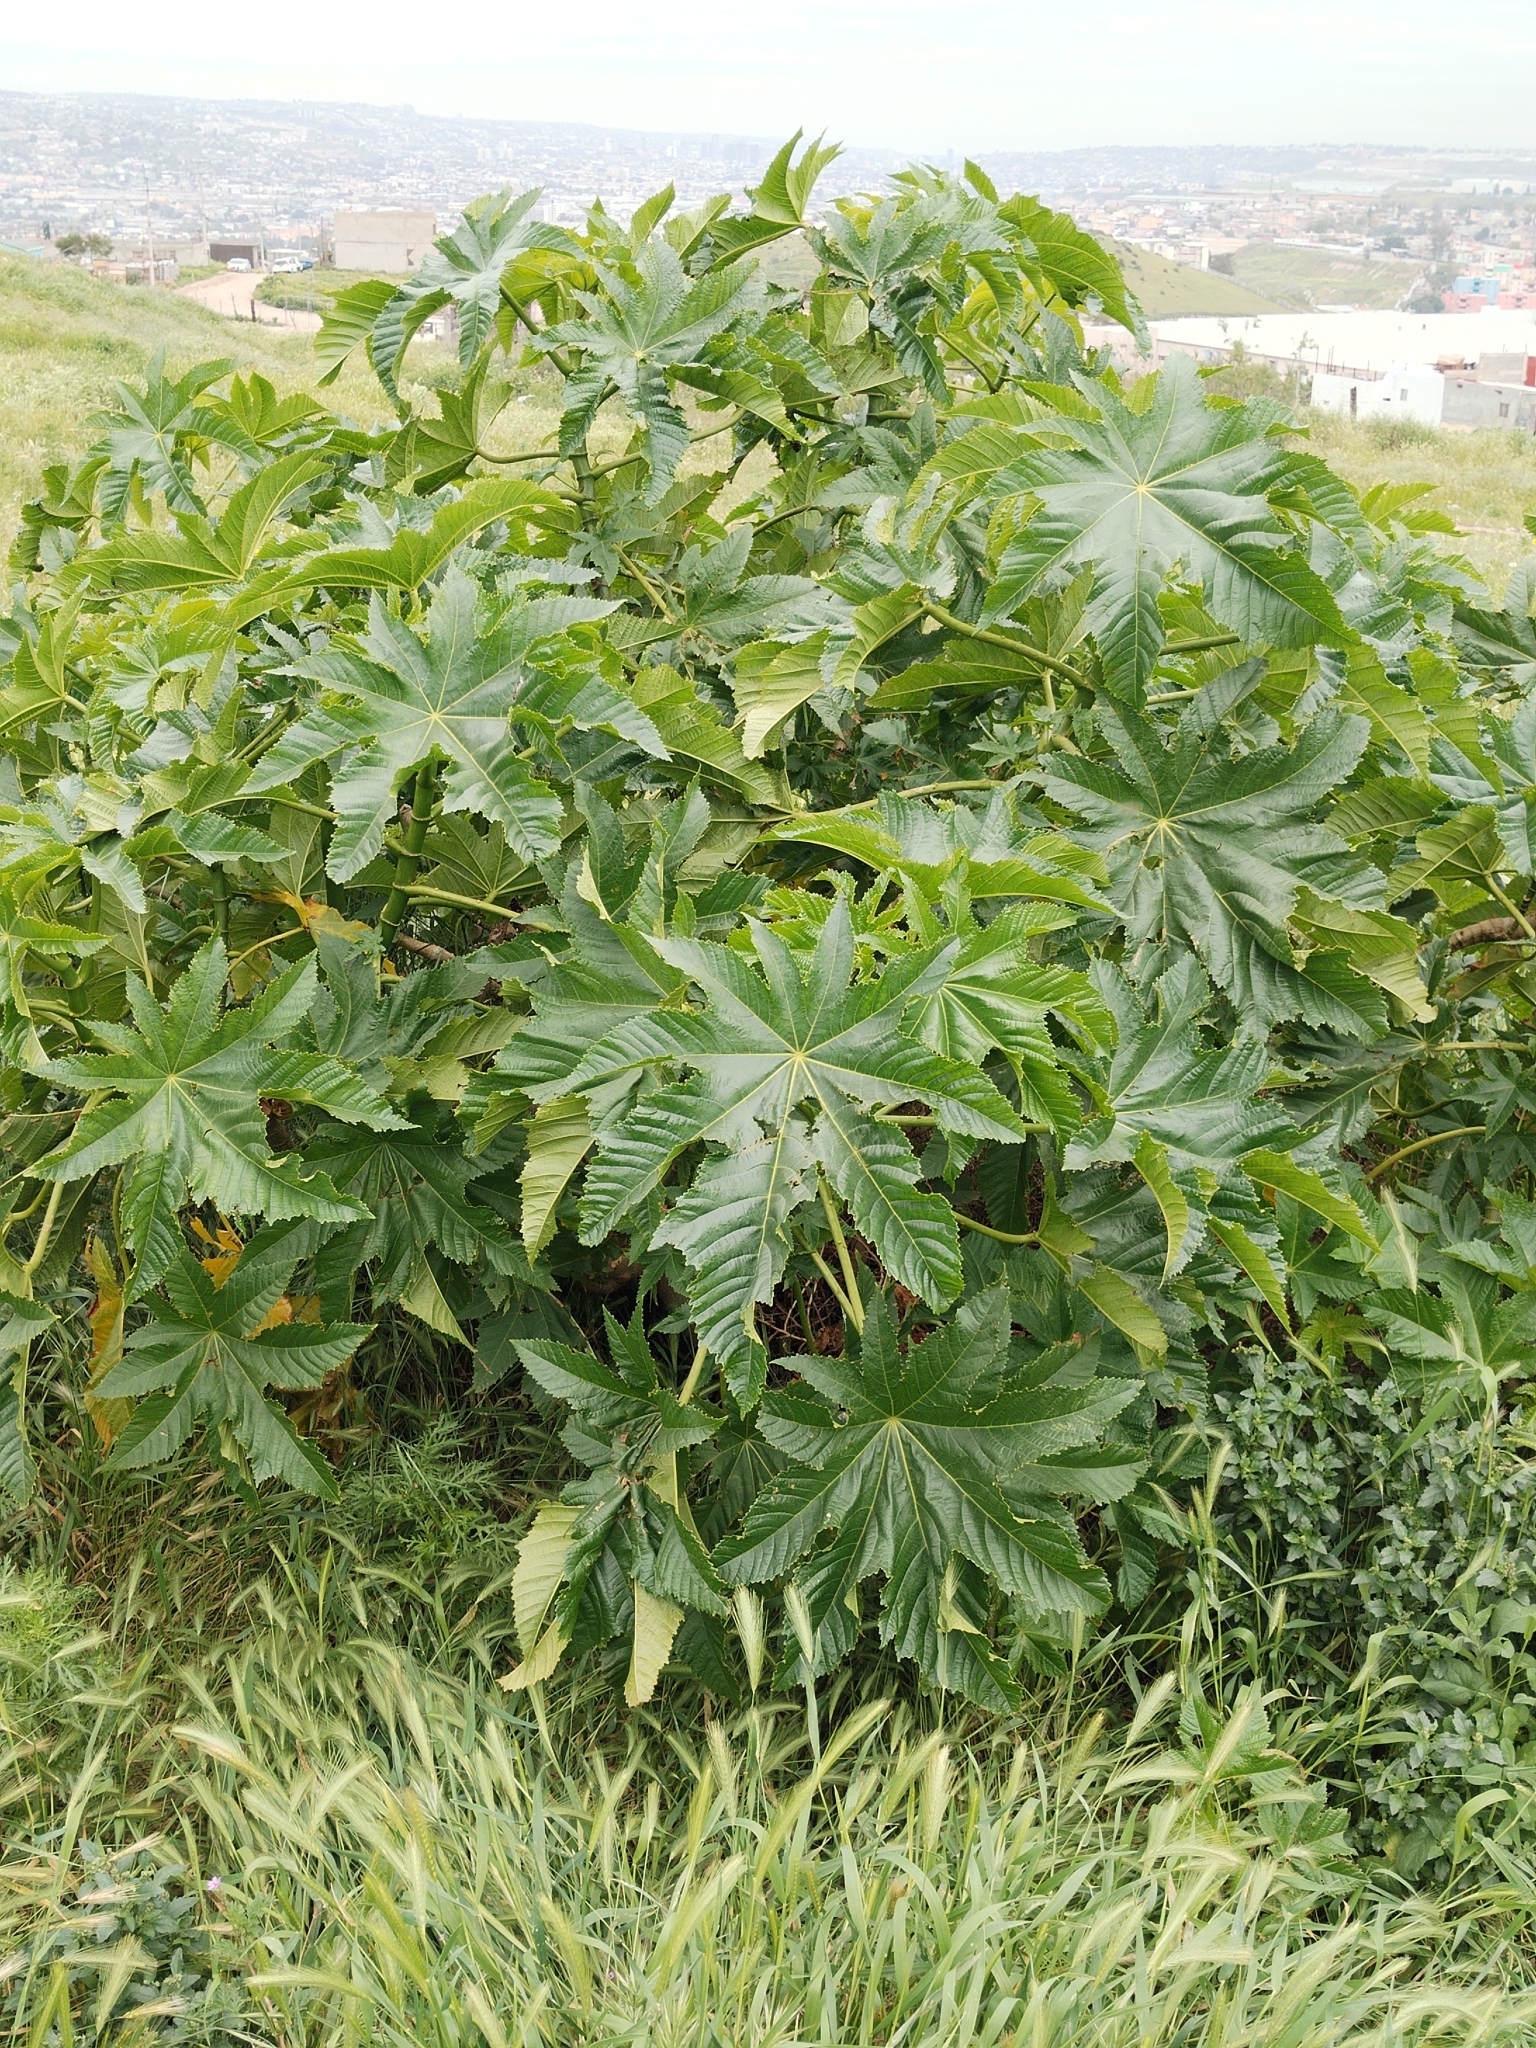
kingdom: Plantae
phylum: Tracheophyta
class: Magnoliopsida
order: Malpighiales
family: Euphorbiaceae
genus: Ricinus
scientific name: Ricinus communis
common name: Castor-oil-plant
